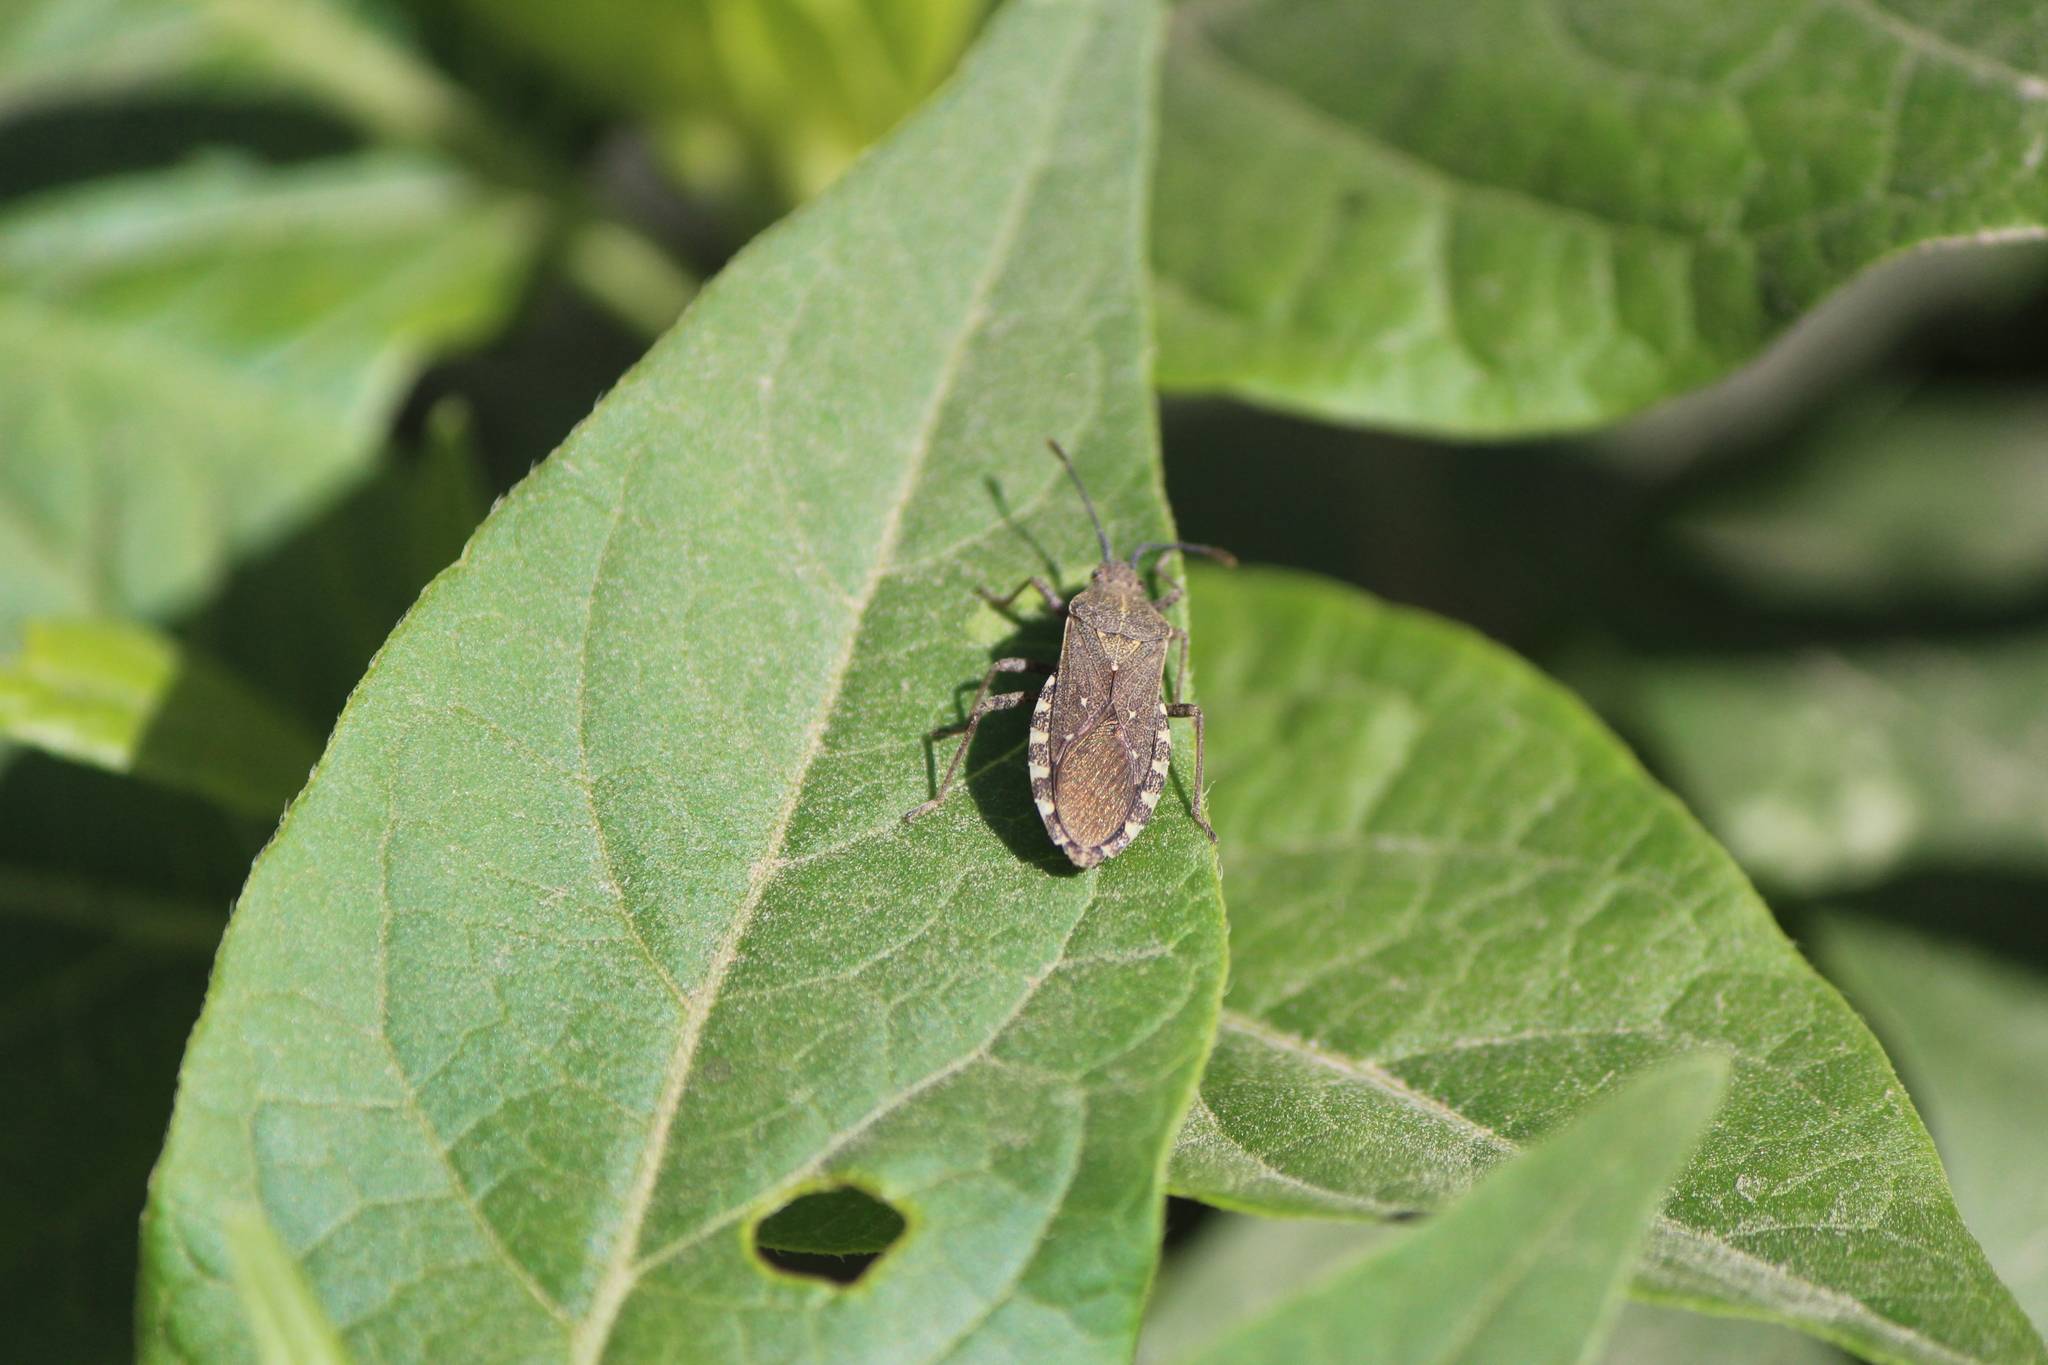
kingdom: Animalia
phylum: Arthropoda
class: Insecta
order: Hemiptera
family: Coreidae
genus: Catorhintha
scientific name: Catorhintha apicalis
